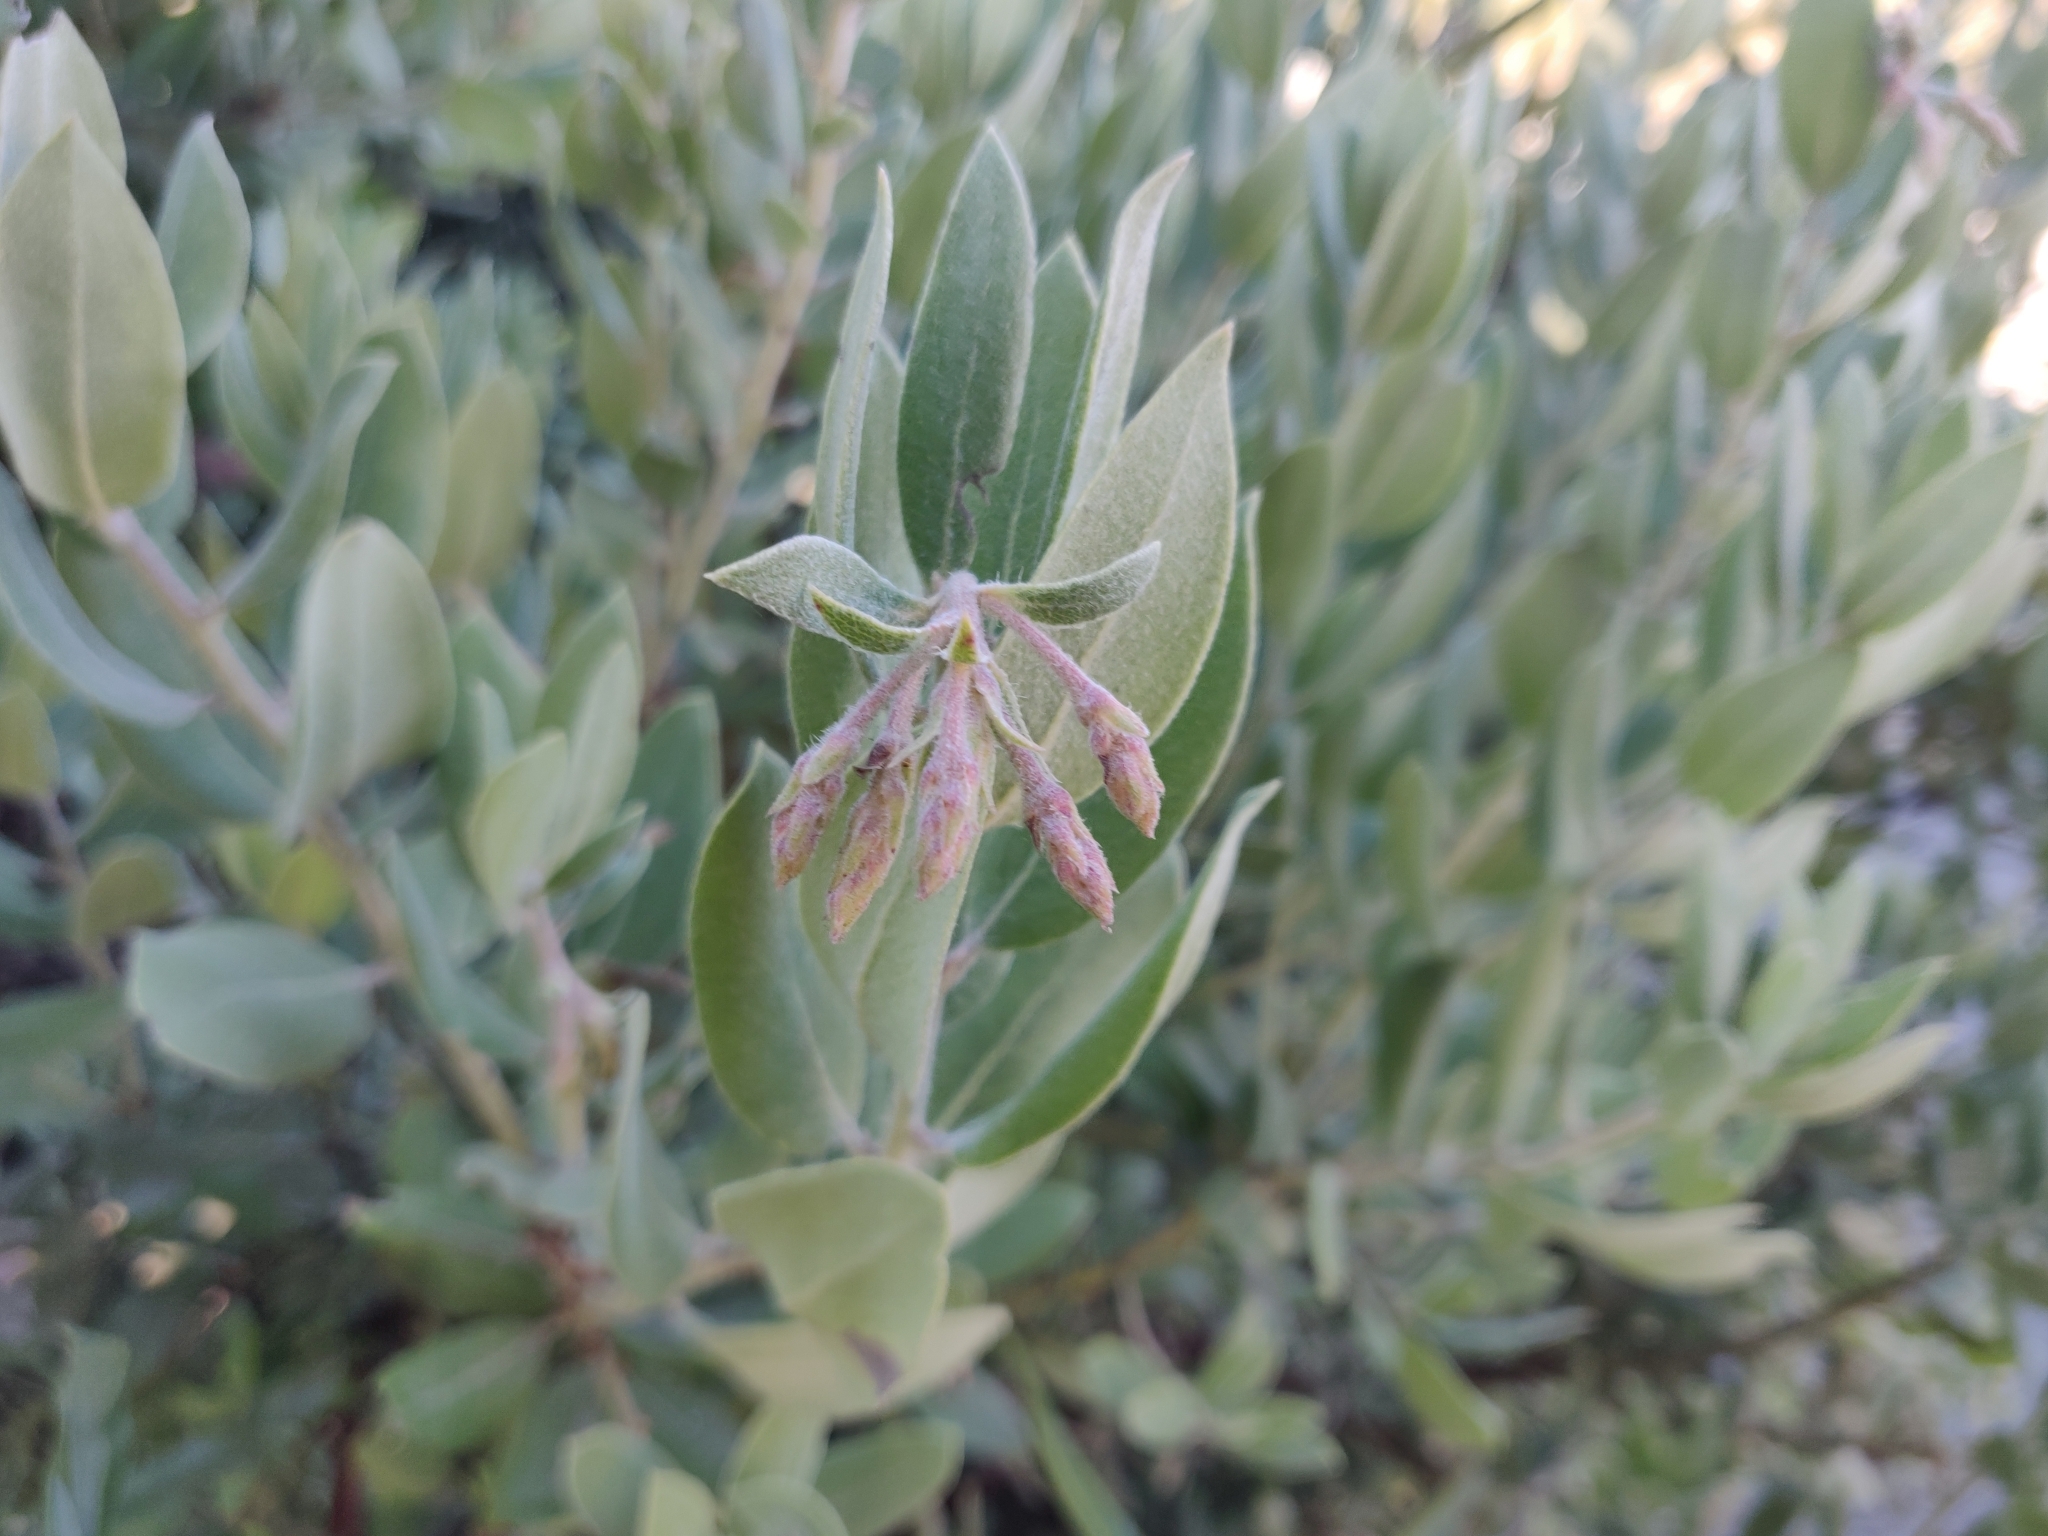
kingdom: Plantae
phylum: Tracheophyta
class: Magnoliopsida
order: Ericales
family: Ericaceae
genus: Arctostaphylos
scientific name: Arctostaphylos crustacea
